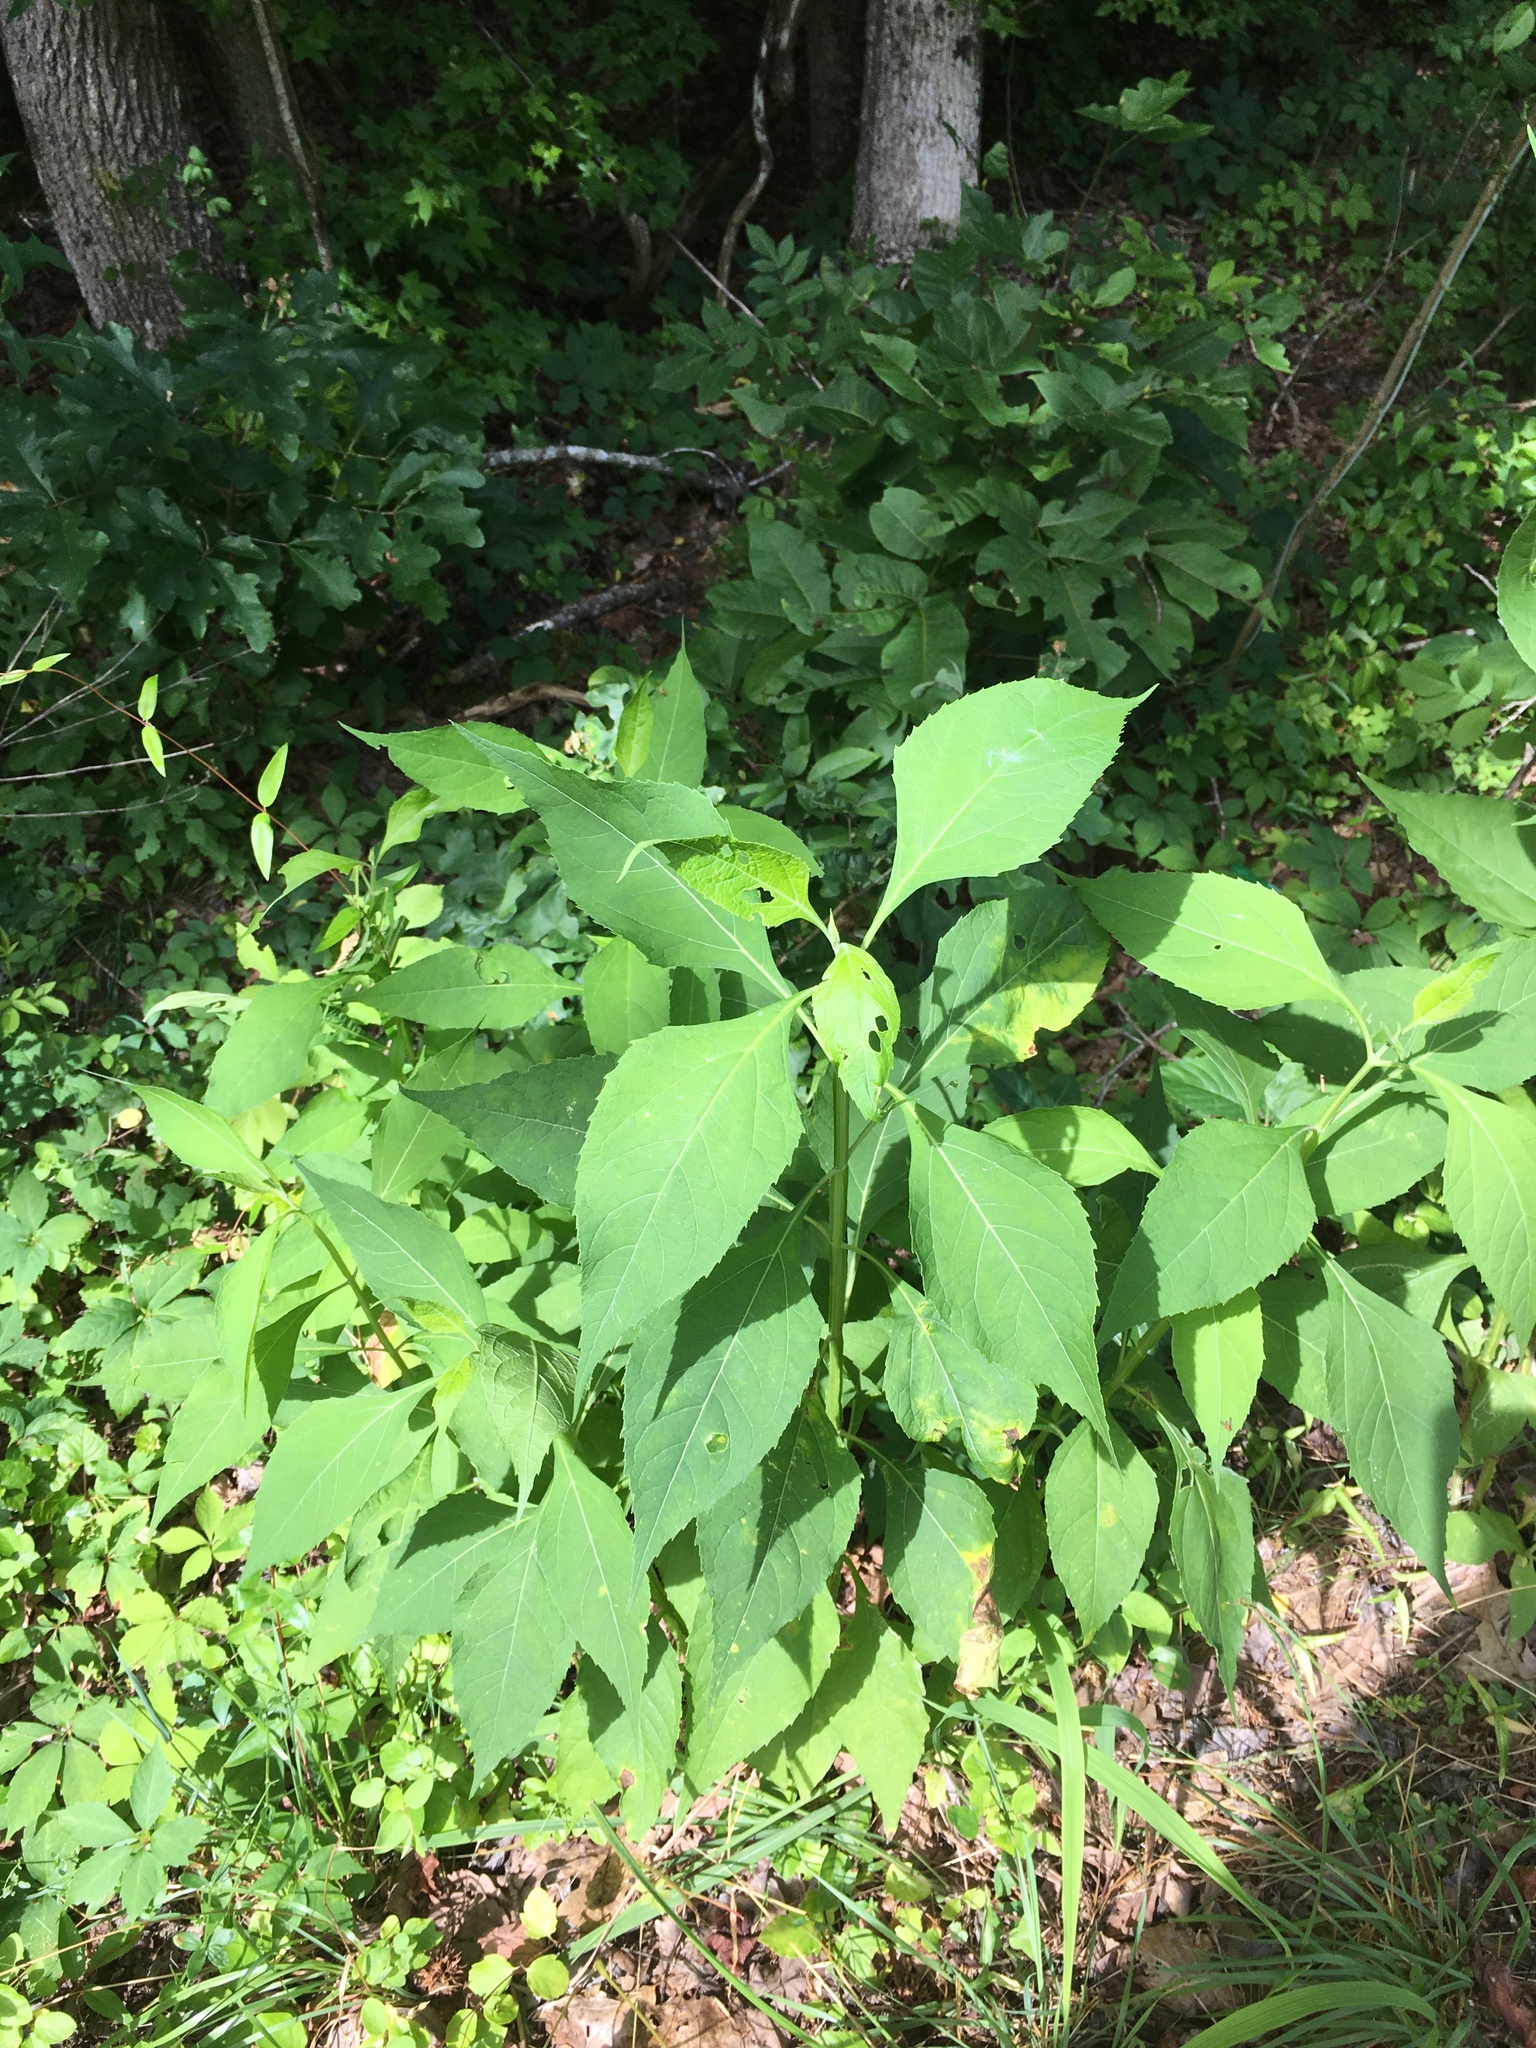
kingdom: Plantae
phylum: Tracheophyta
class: Magnoliopsida
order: Asterales
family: Asteraceae
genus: Verbesina
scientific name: Verbesina occidentalis
